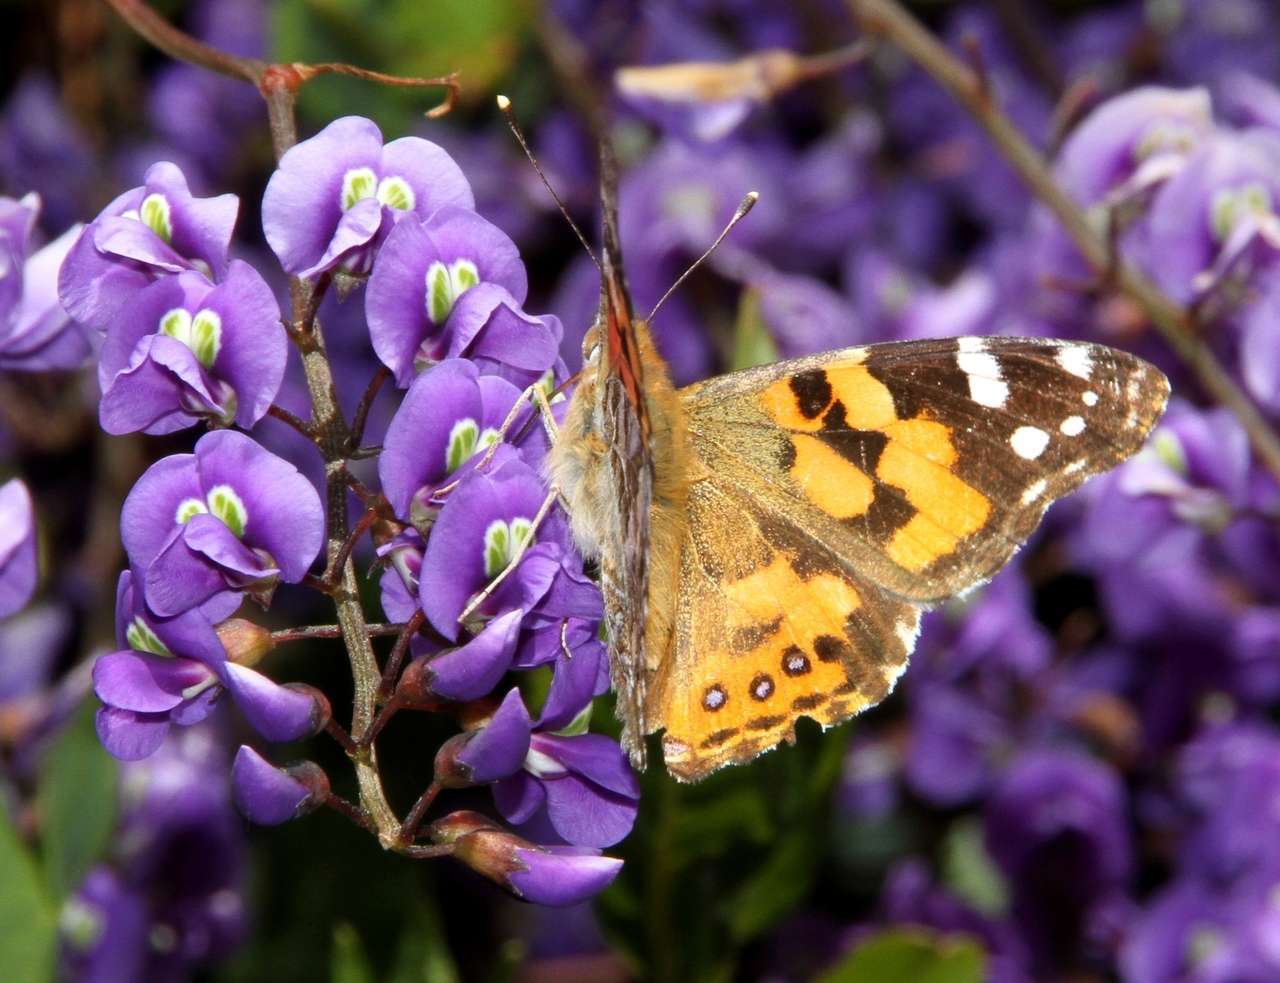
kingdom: Animalia
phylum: Arthropoda
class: Insecta
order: Lepidoptera
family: Nymphalidae
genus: Vanessa
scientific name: Vanessa kershawi
